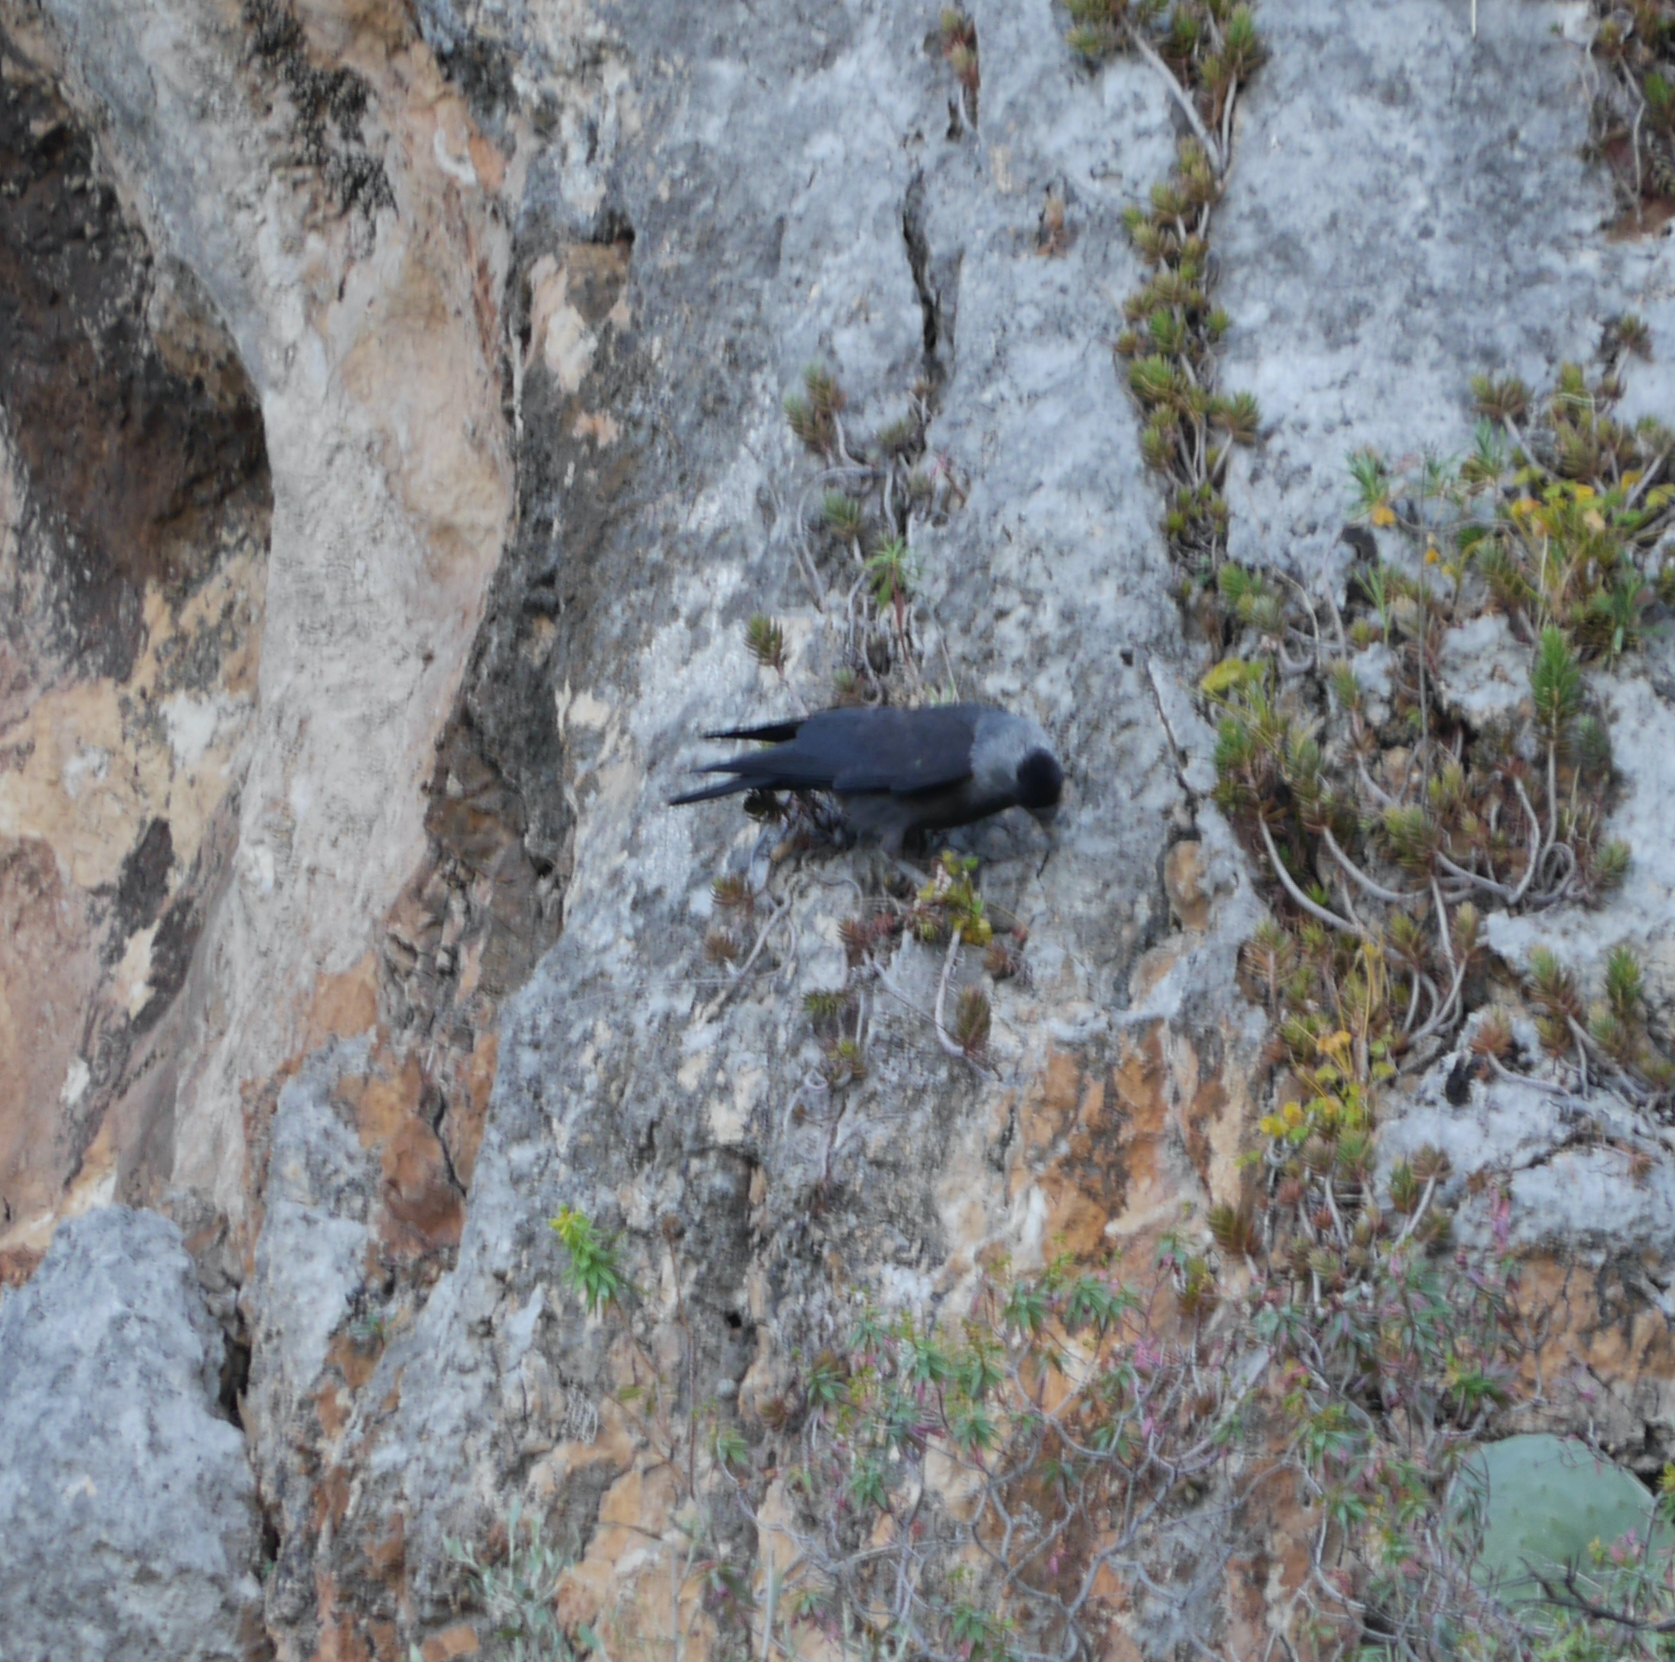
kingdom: Animalia
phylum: Chordata
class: Aves
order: Passeriformes
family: Corvidae
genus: Coloeus
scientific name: Coloeus monedula
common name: Western jackdaw
